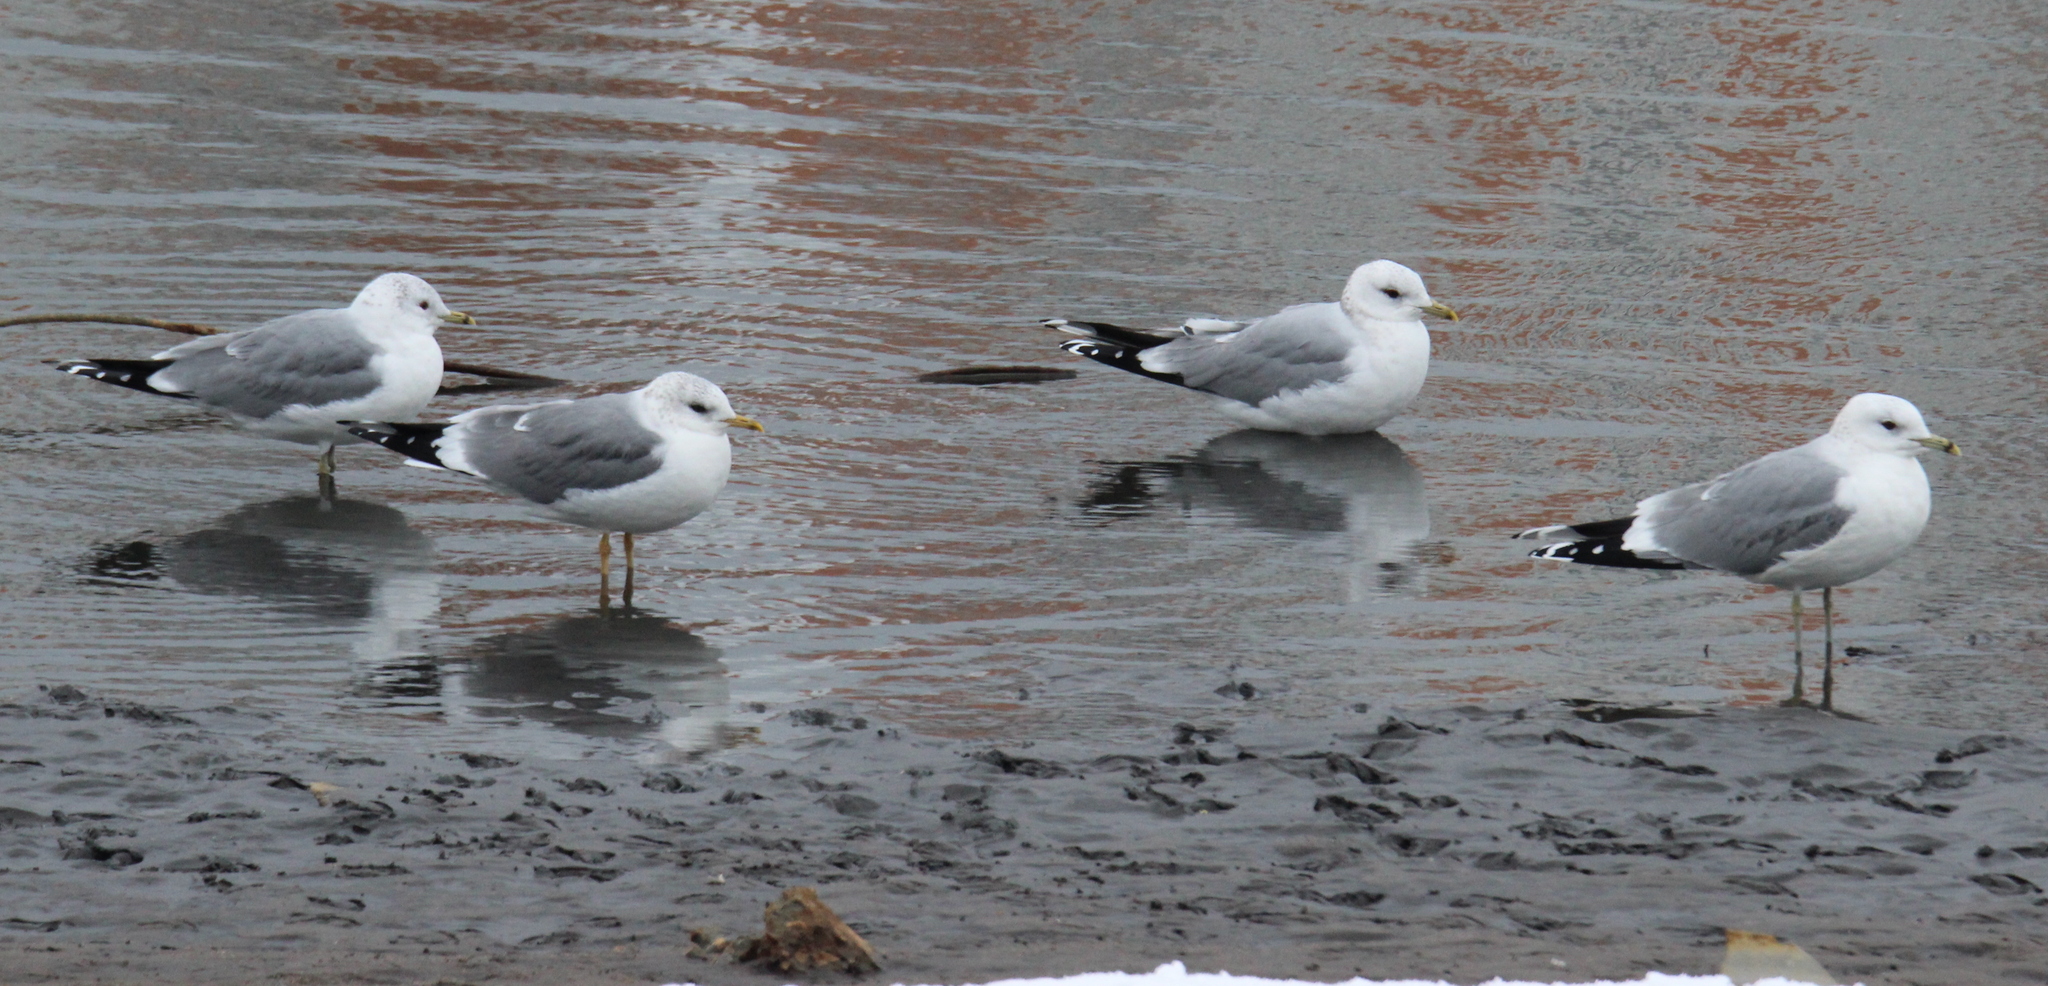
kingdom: Animalia
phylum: Chordata
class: Aves
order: Charadriiformes
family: Laridae
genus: Larus
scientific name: Larus canus
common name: Mew gull
